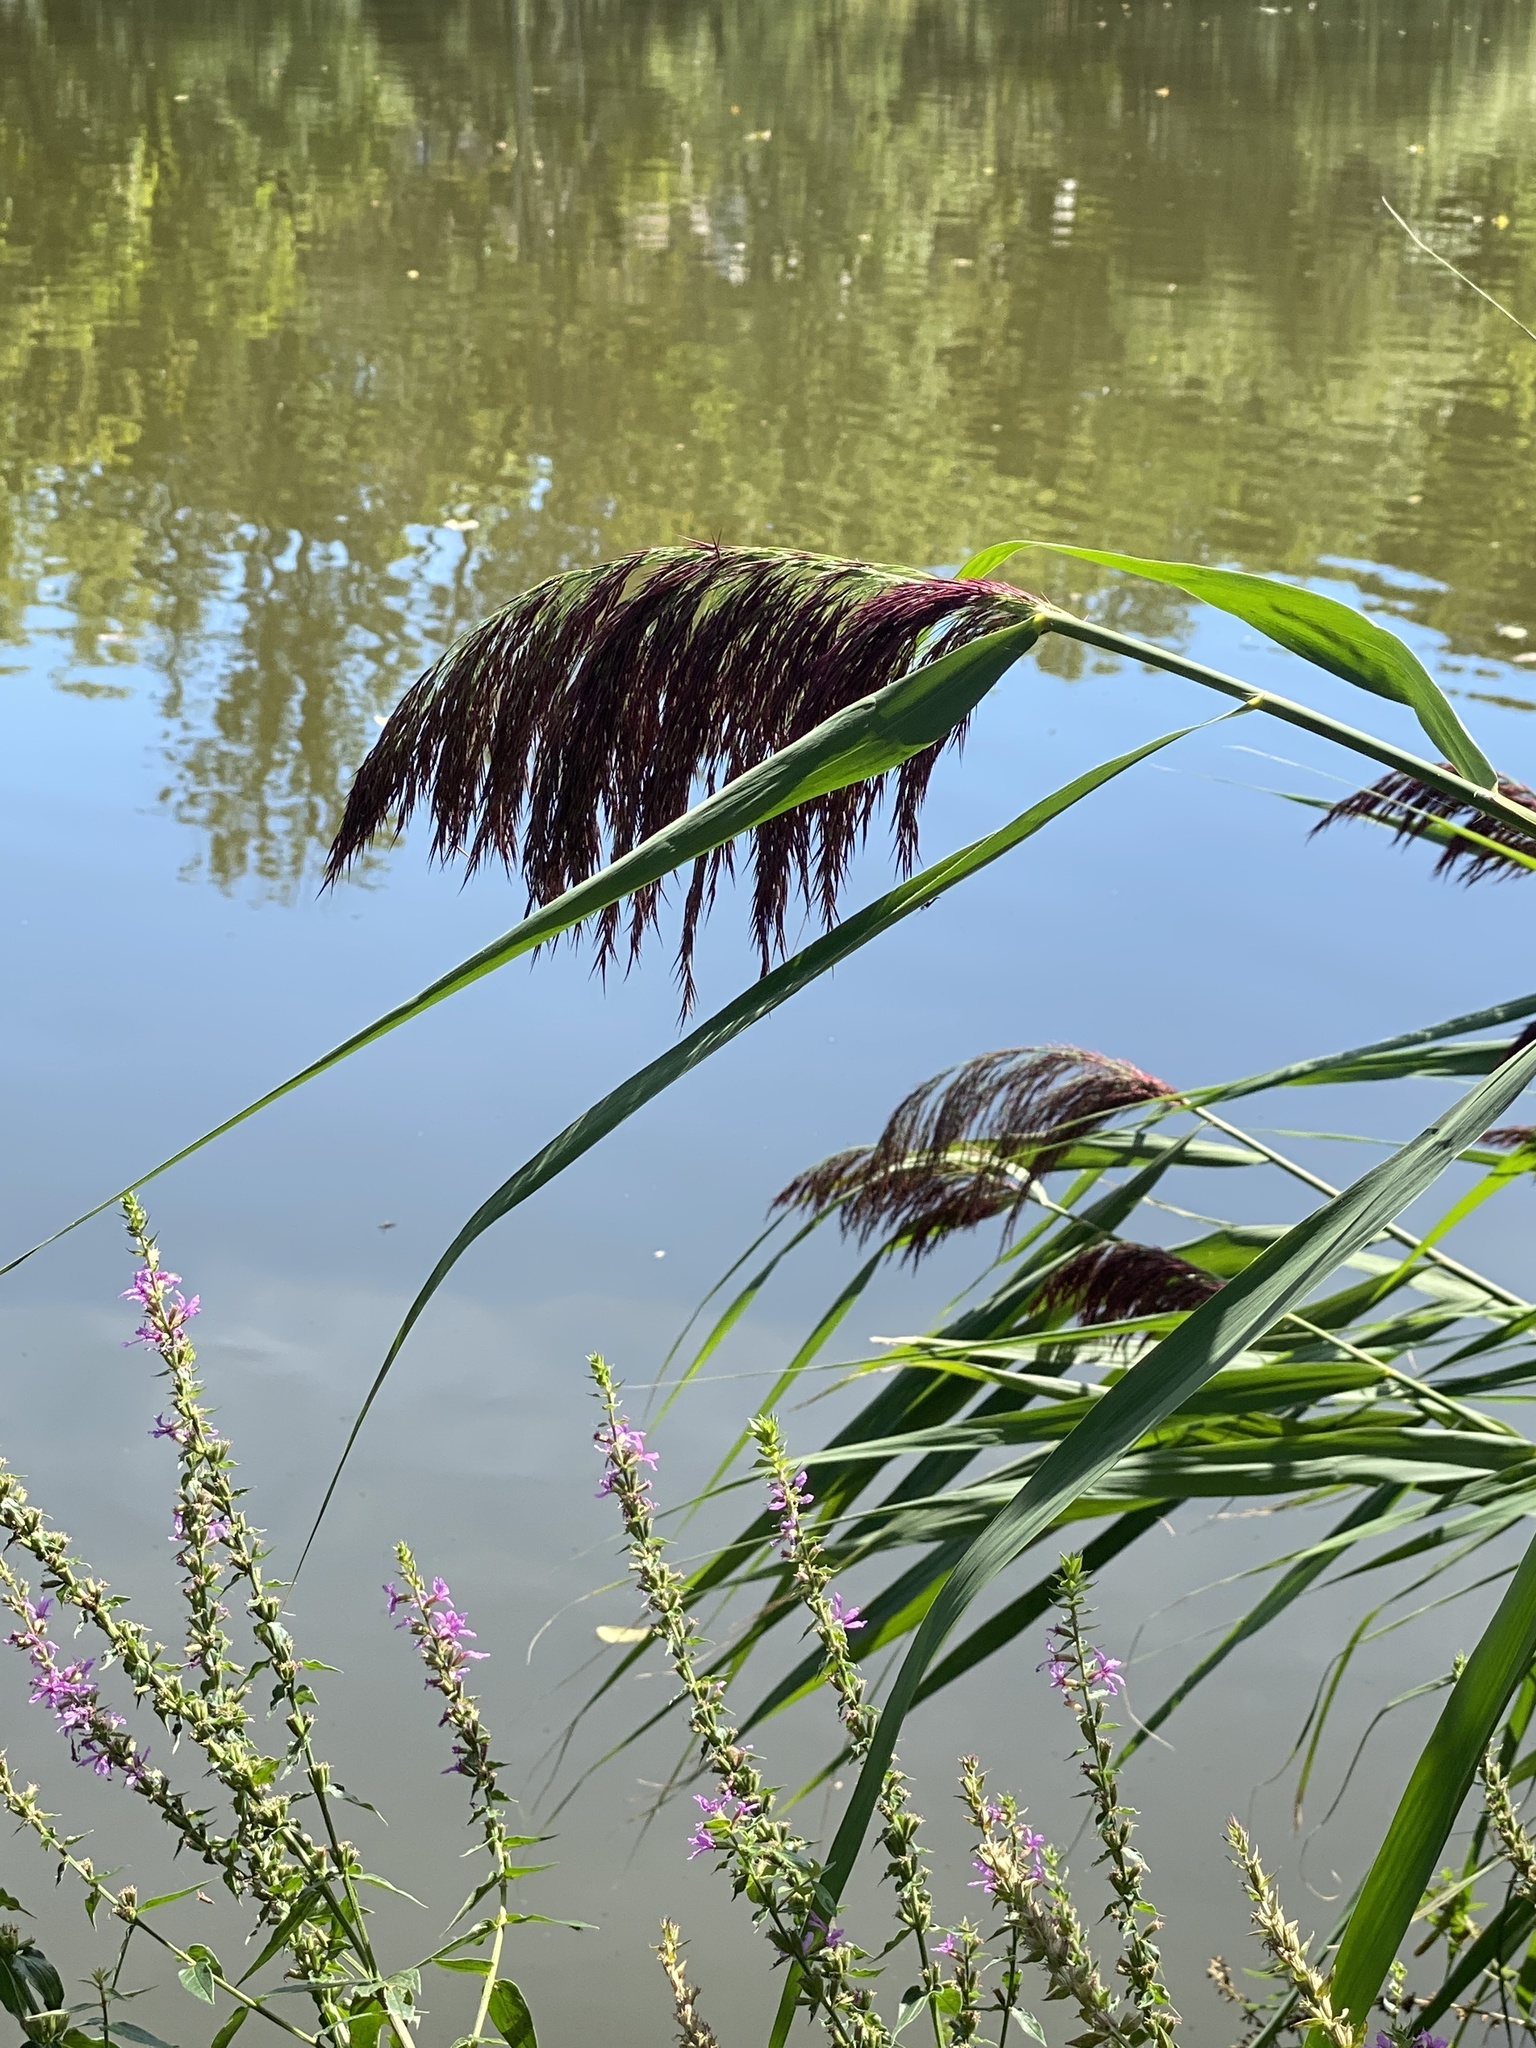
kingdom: Plantae
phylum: Tracheophyta
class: Liliopsida
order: Poales
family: Poaceae
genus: Phragmites
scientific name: Phragmites australis
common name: Common reed
